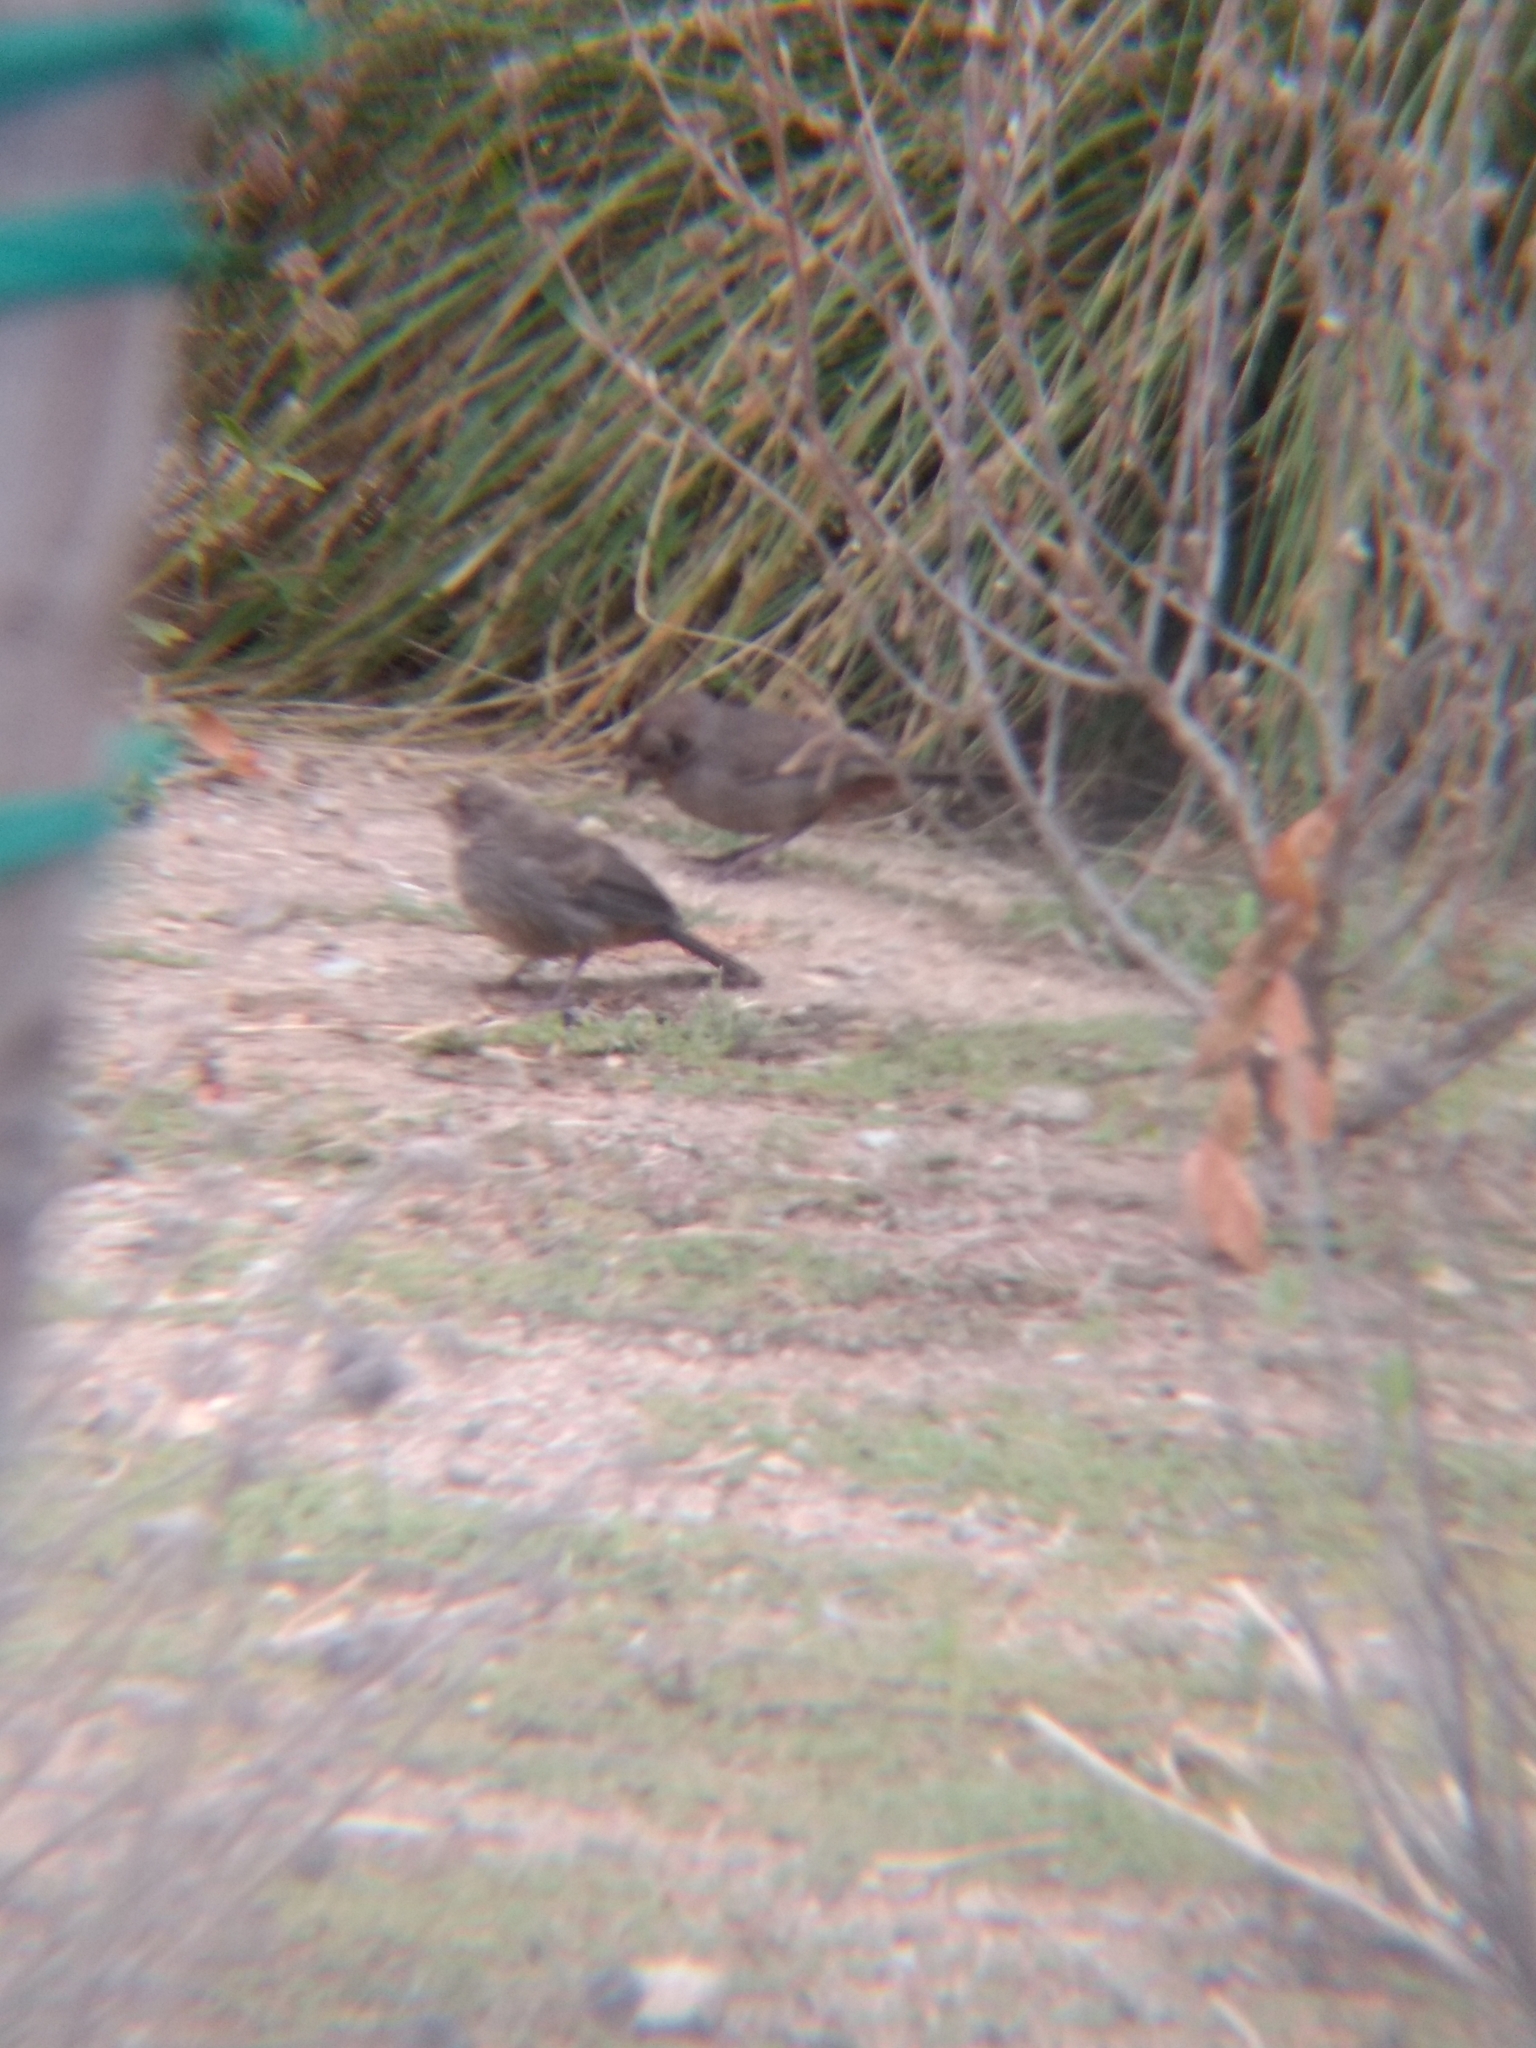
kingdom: Animalia
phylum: Chordata
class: Aves
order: Passeriformes
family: Passerellidae
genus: Melozone
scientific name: Melozone crissalis
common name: California towhee
